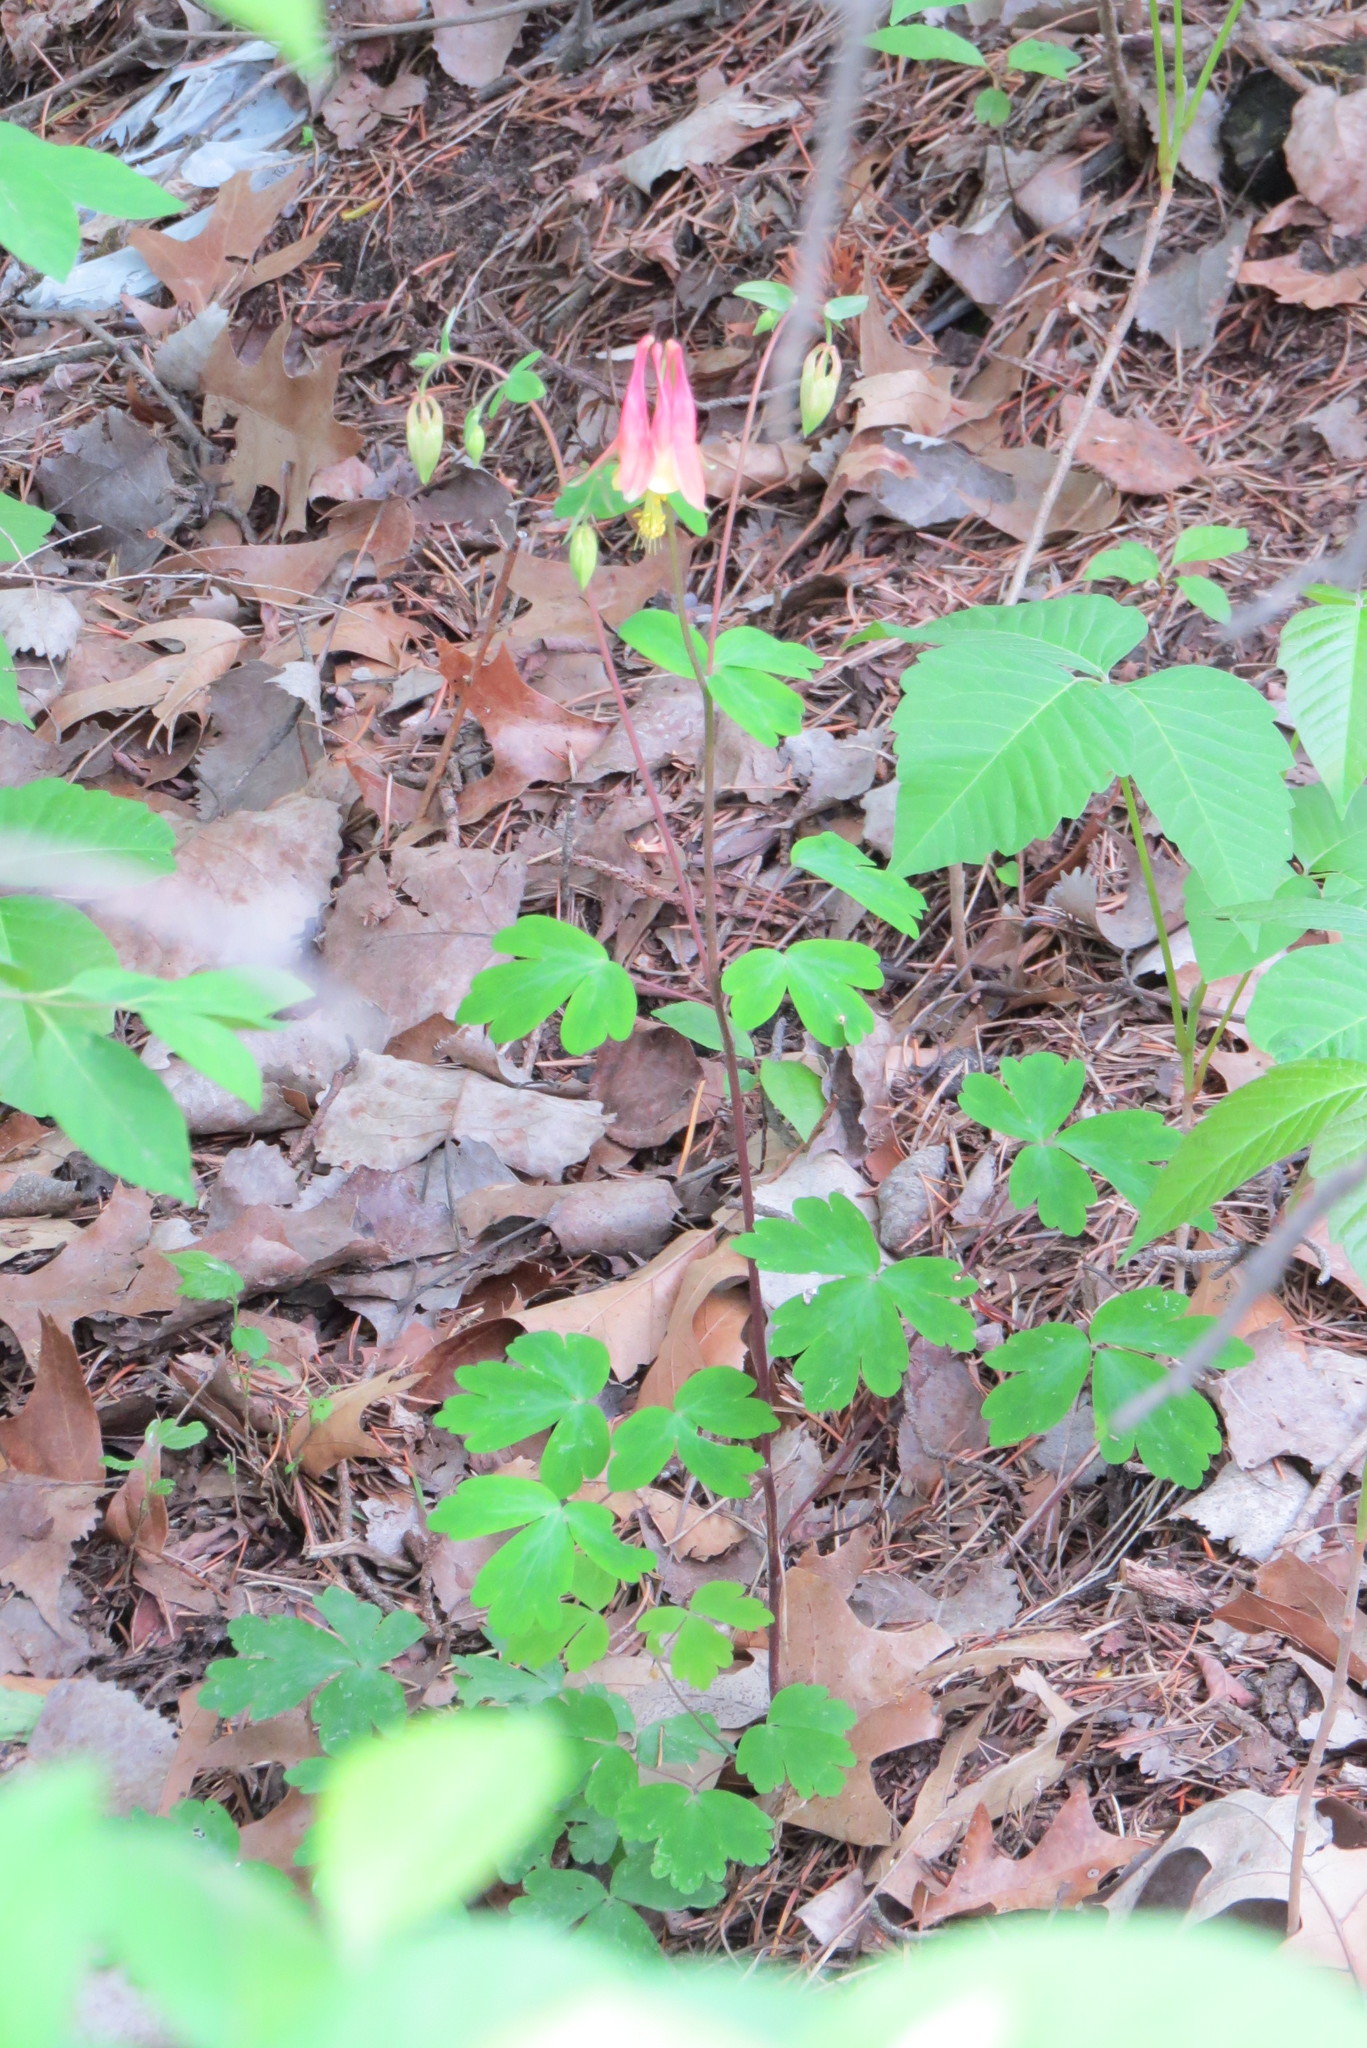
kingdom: Plantae
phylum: Tracheophyta
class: Magnoliopsida
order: Ranunculales
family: Ranunculaceae
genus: Aquilegia
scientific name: Aquilegia canadensis
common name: American columbine
